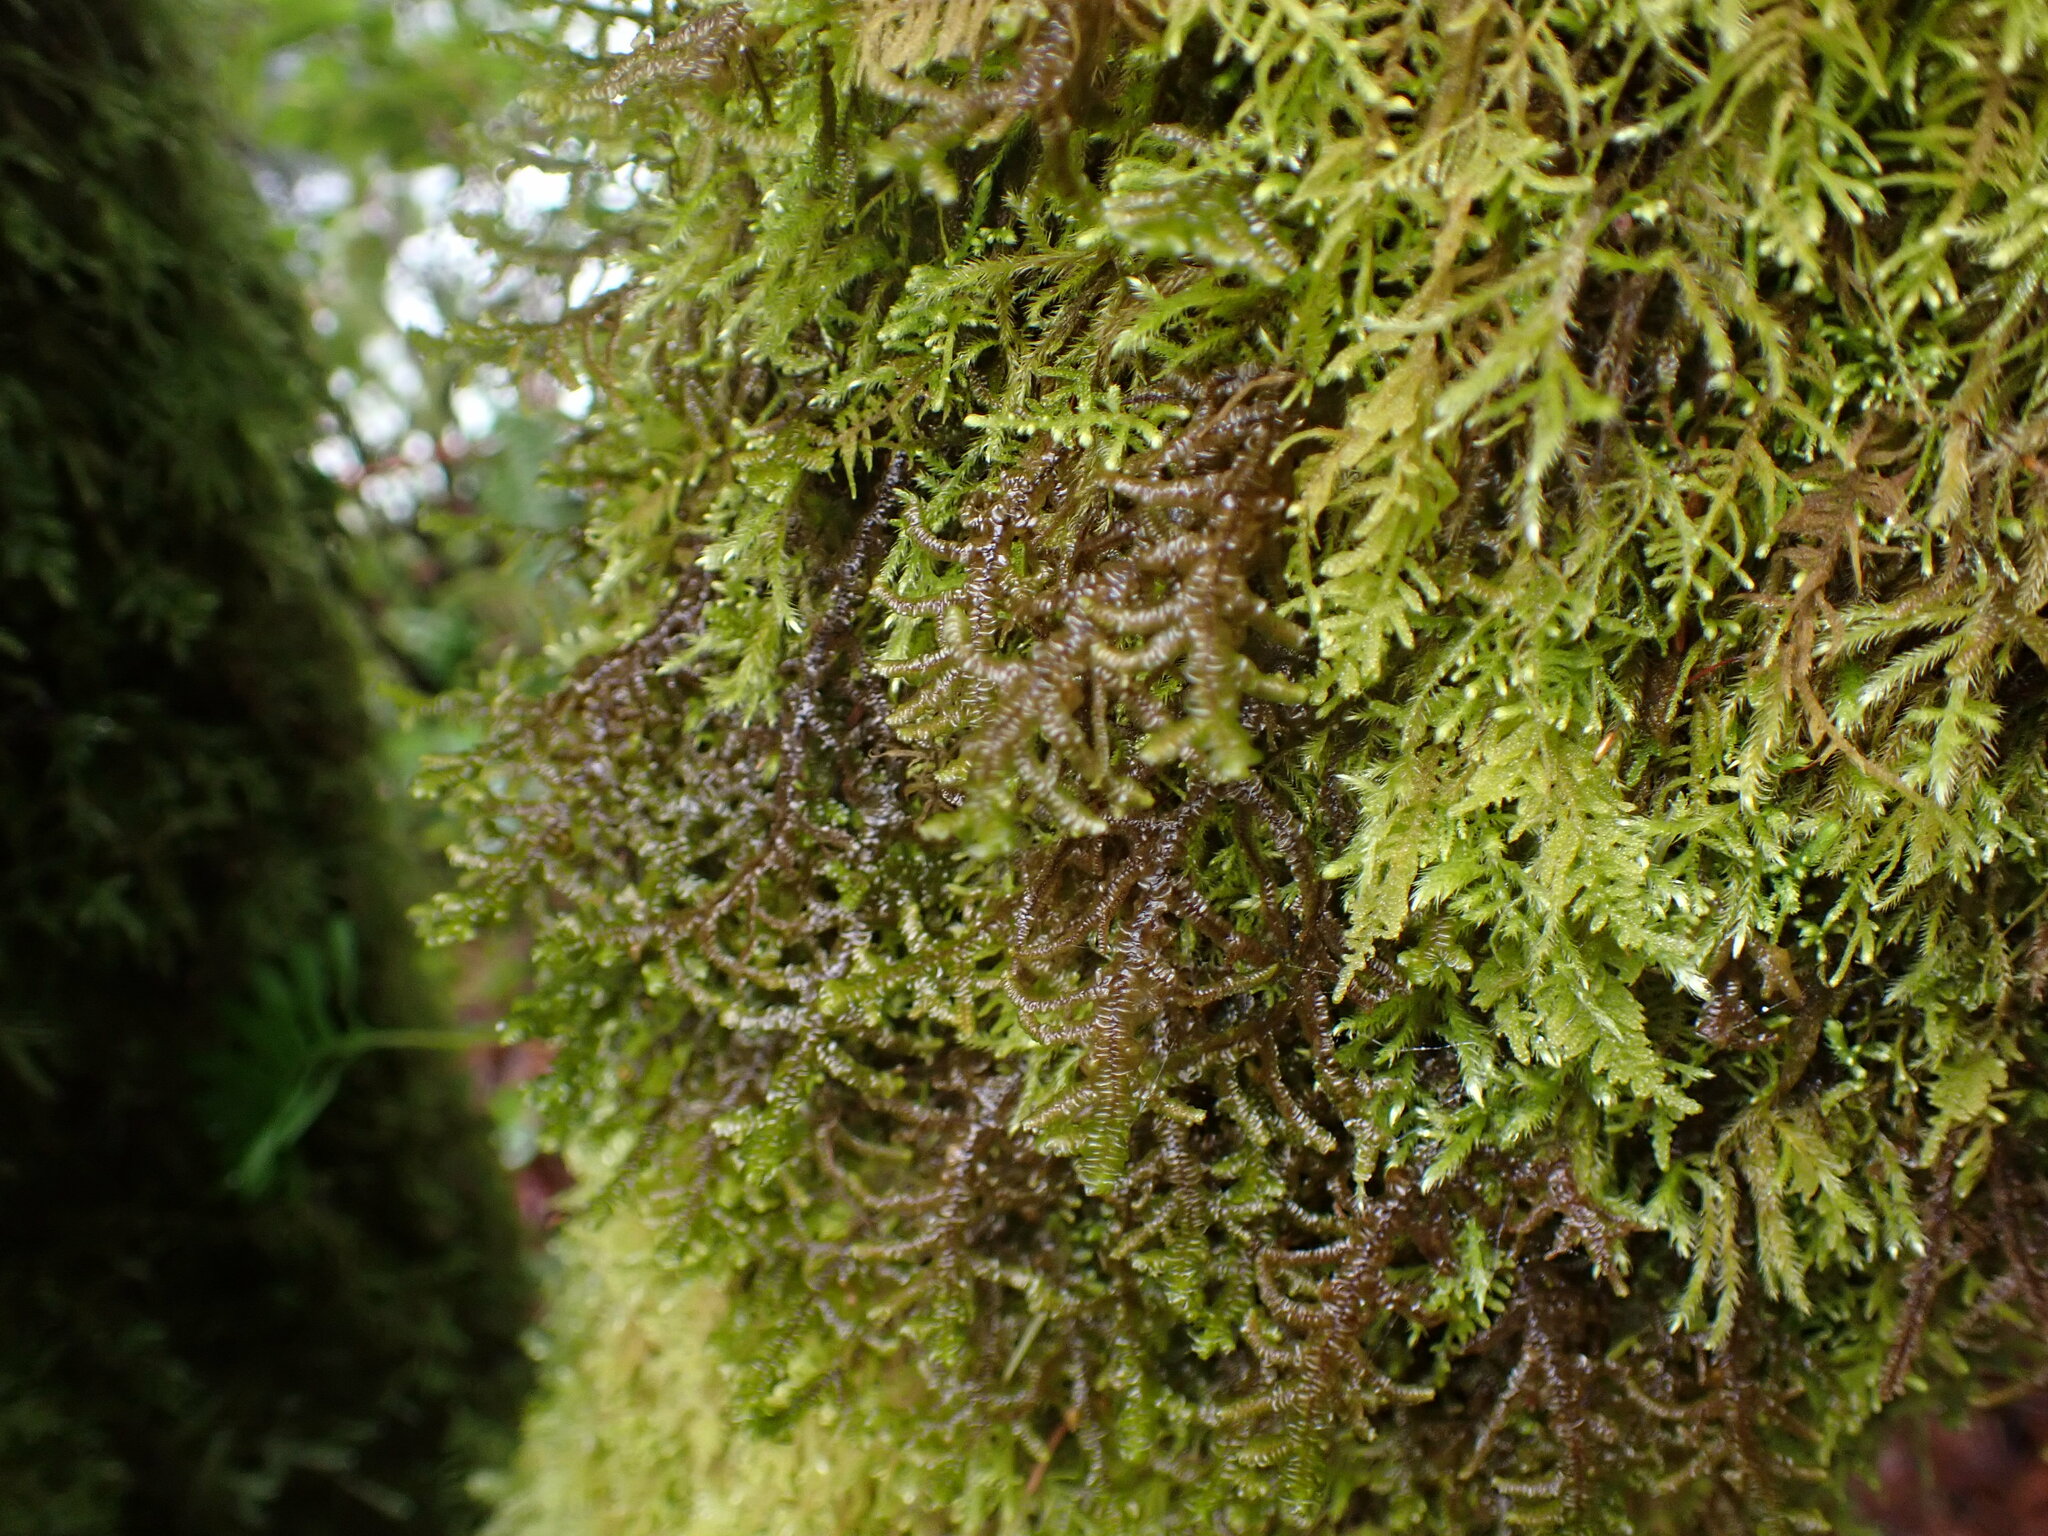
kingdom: Plantae
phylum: Marchantiophyta
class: Jungermanniopsida
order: Porellales
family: Porellaceae
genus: Porella
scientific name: Porella navicularis
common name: Tree ruffle liverwort
